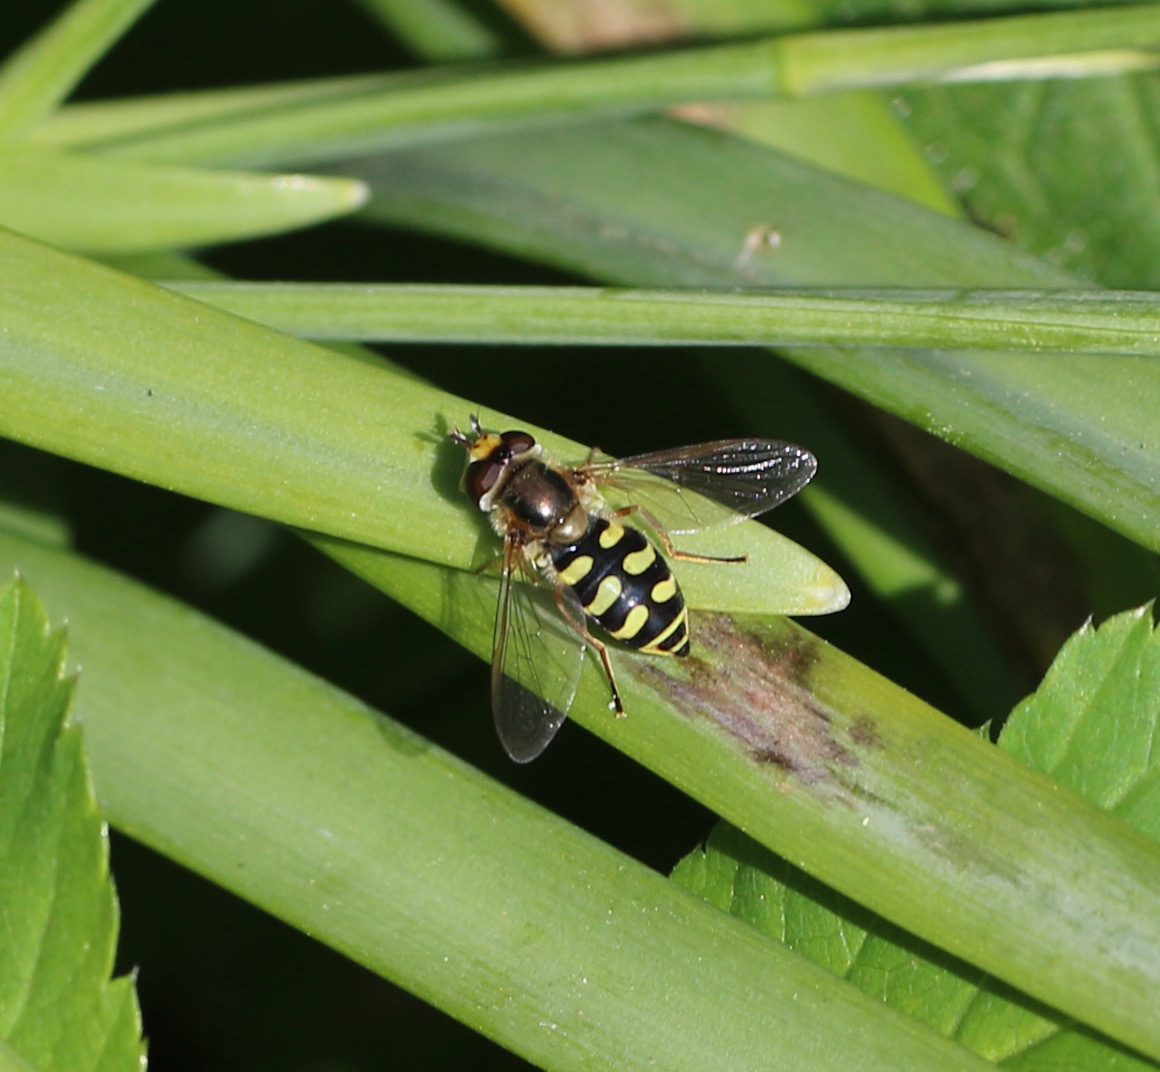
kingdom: Animalia
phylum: Arthropoda
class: Insecta
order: Diptera
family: Syrphidae
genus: Eupeodes
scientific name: Eupeodes corollae
